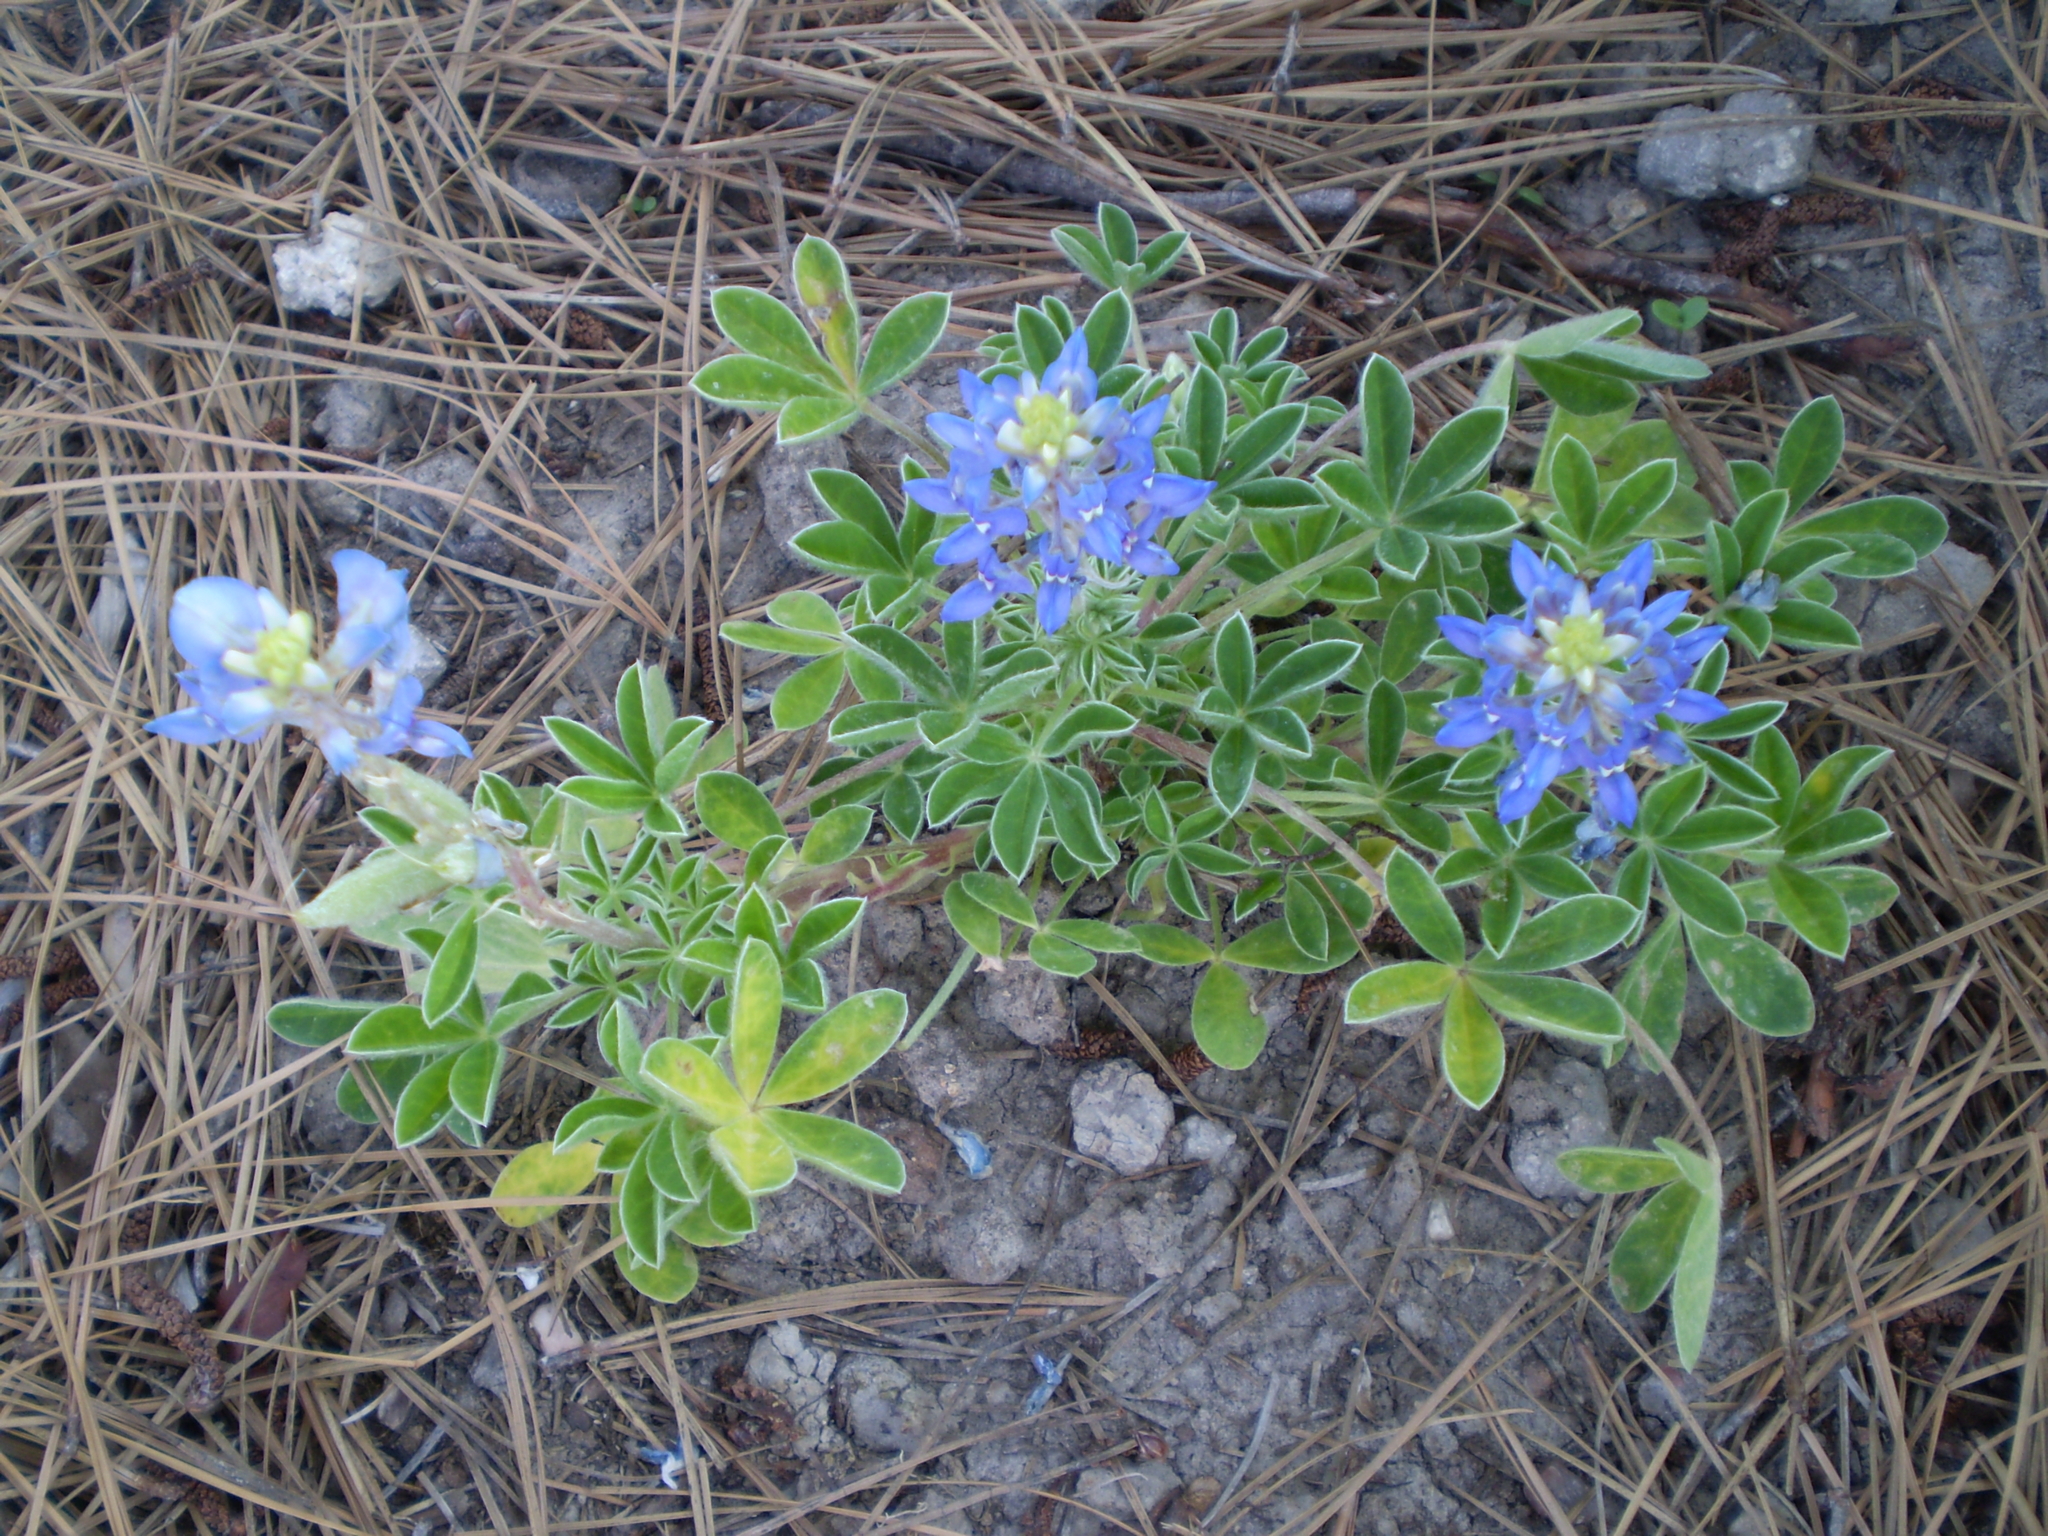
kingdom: Plantae
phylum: Tracheophyta
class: Magnoliopsida
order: Fabales
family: Fabaceae
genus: Lupinus
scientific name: Lupinus texensis
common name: Texas bluebonnet
